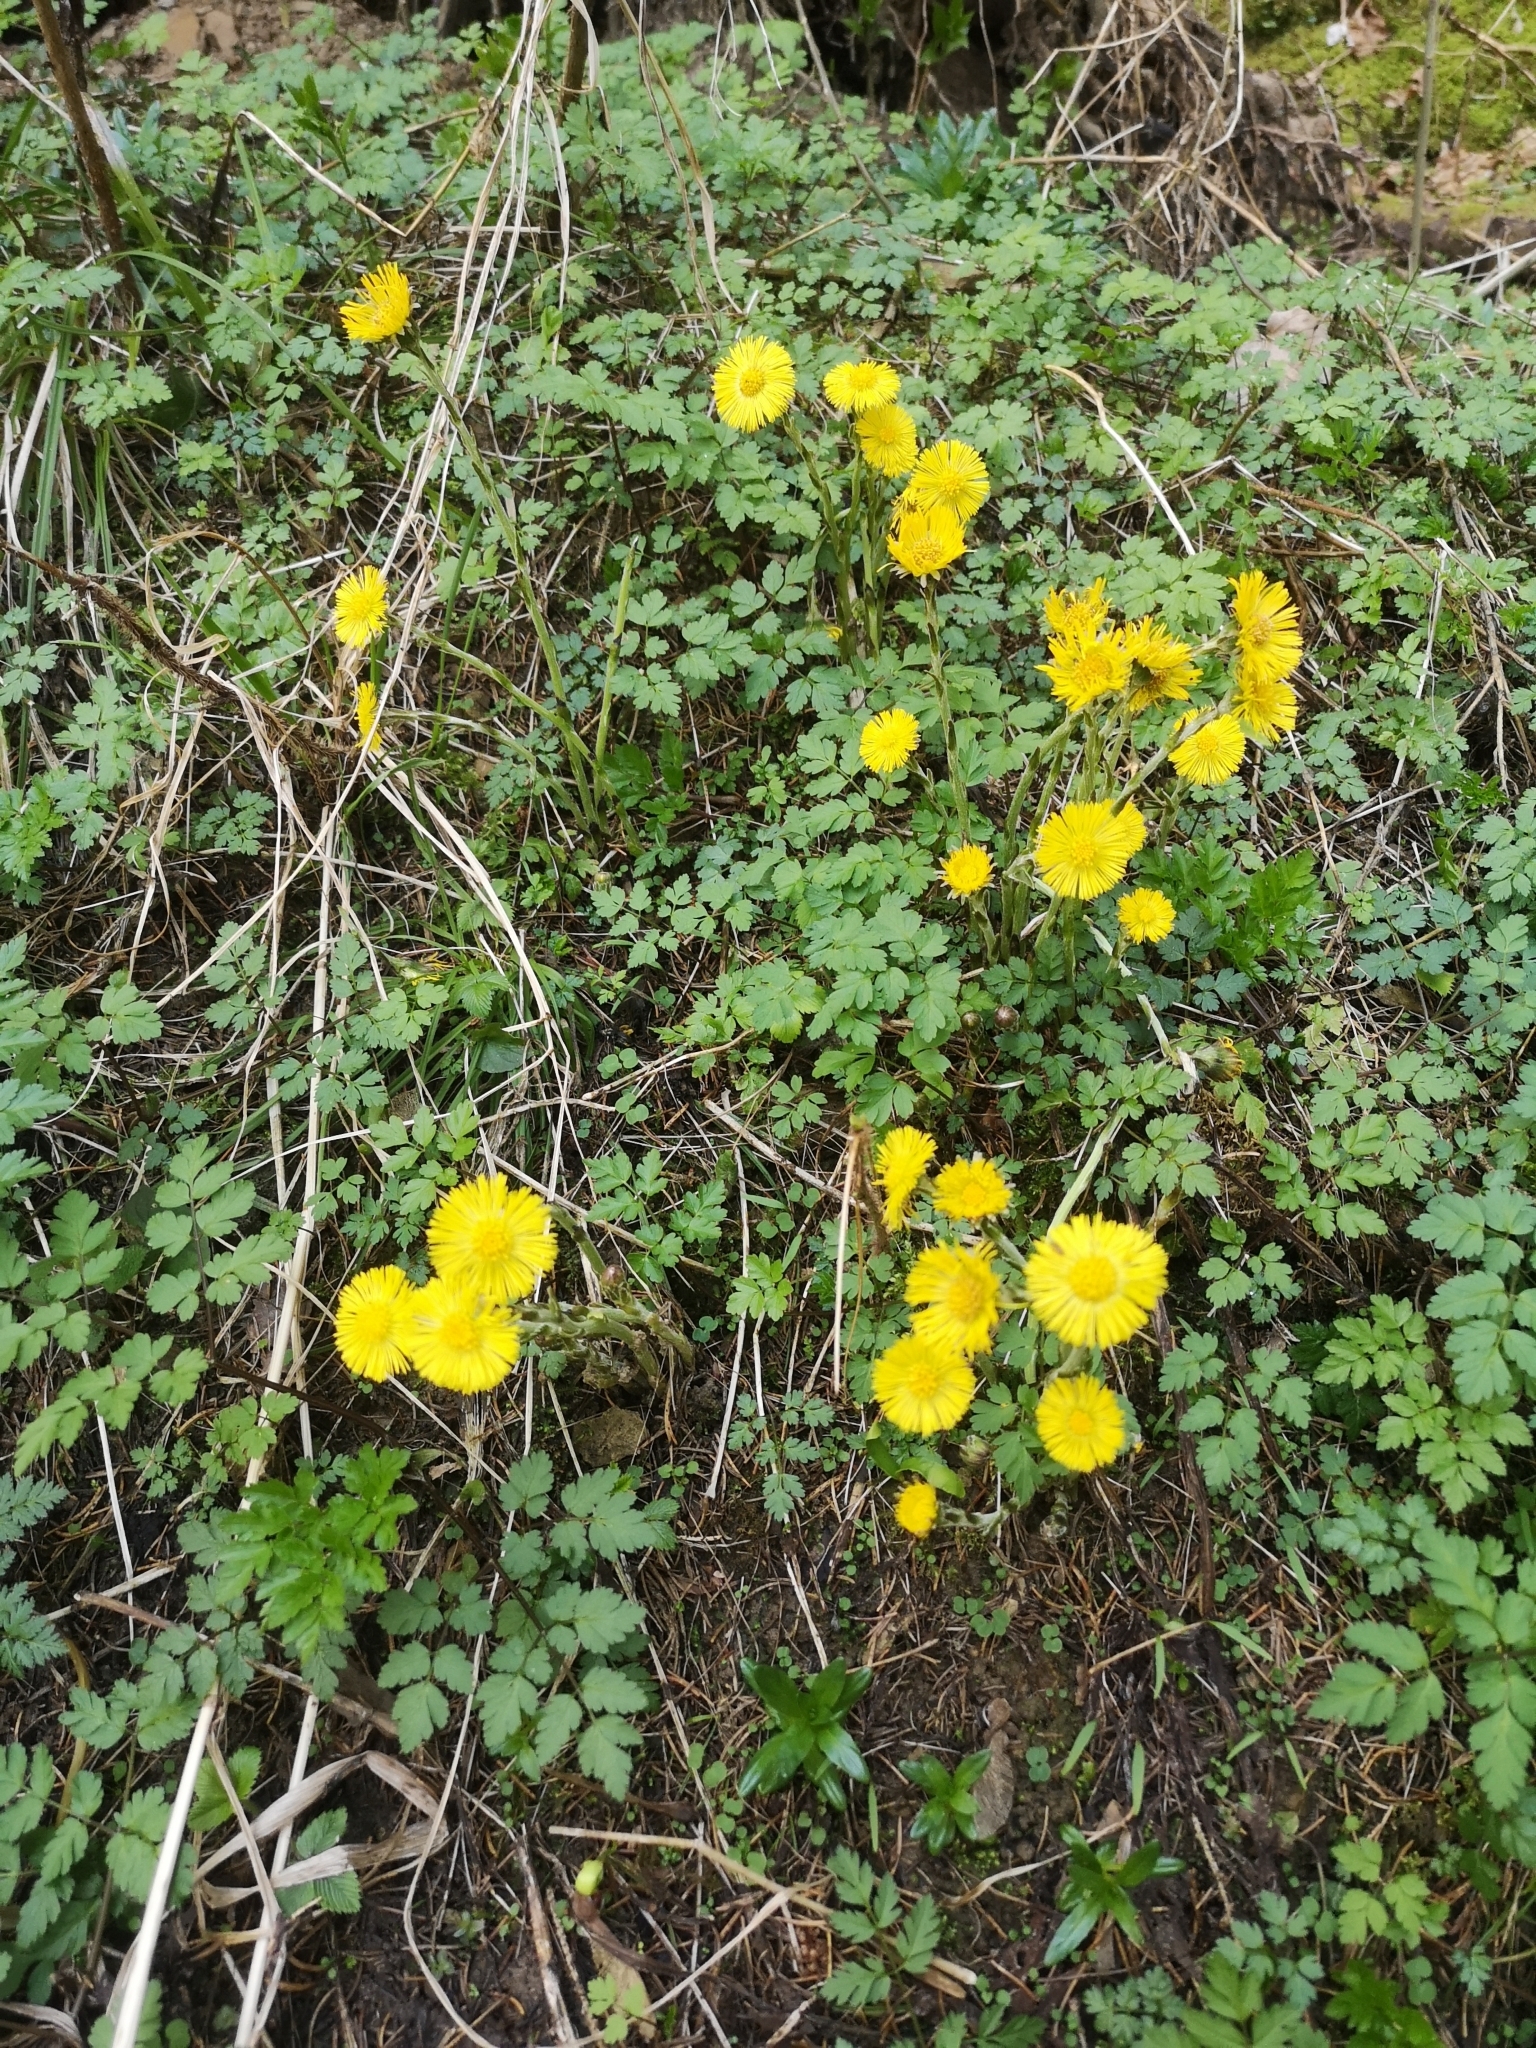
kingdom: Plantae
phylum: Tracheophyta
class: Magnoliopsida
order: Asterales
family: Asteraceae
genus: Tussilago
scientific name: Tussilago farfara
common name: Coltsfoot
